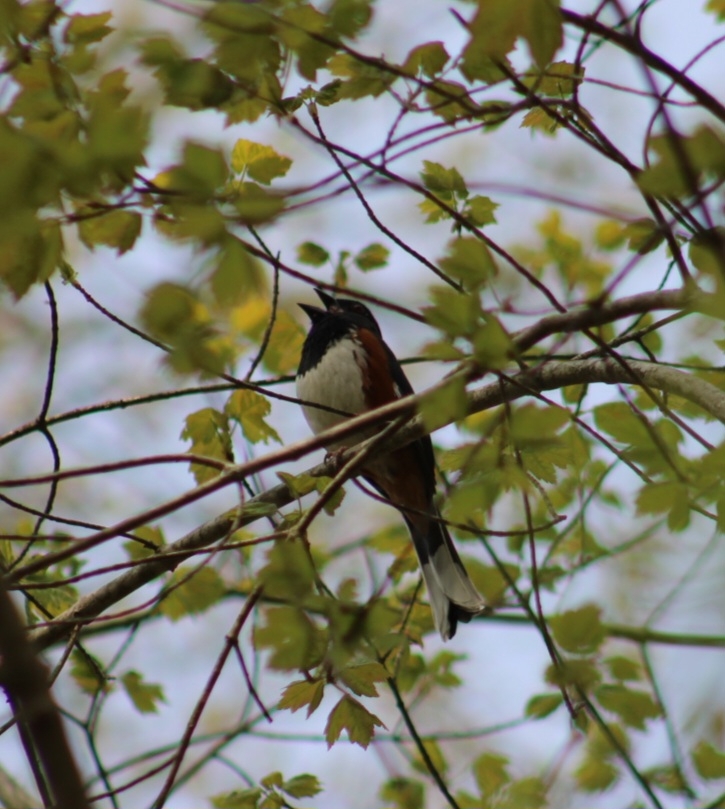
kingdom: Animalia
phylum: Chordata
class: Aves
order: Passeriformes
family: Passerellidae
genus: Pipilo
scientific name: Pipilo erythrophthalmus
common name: Eastern towhee
